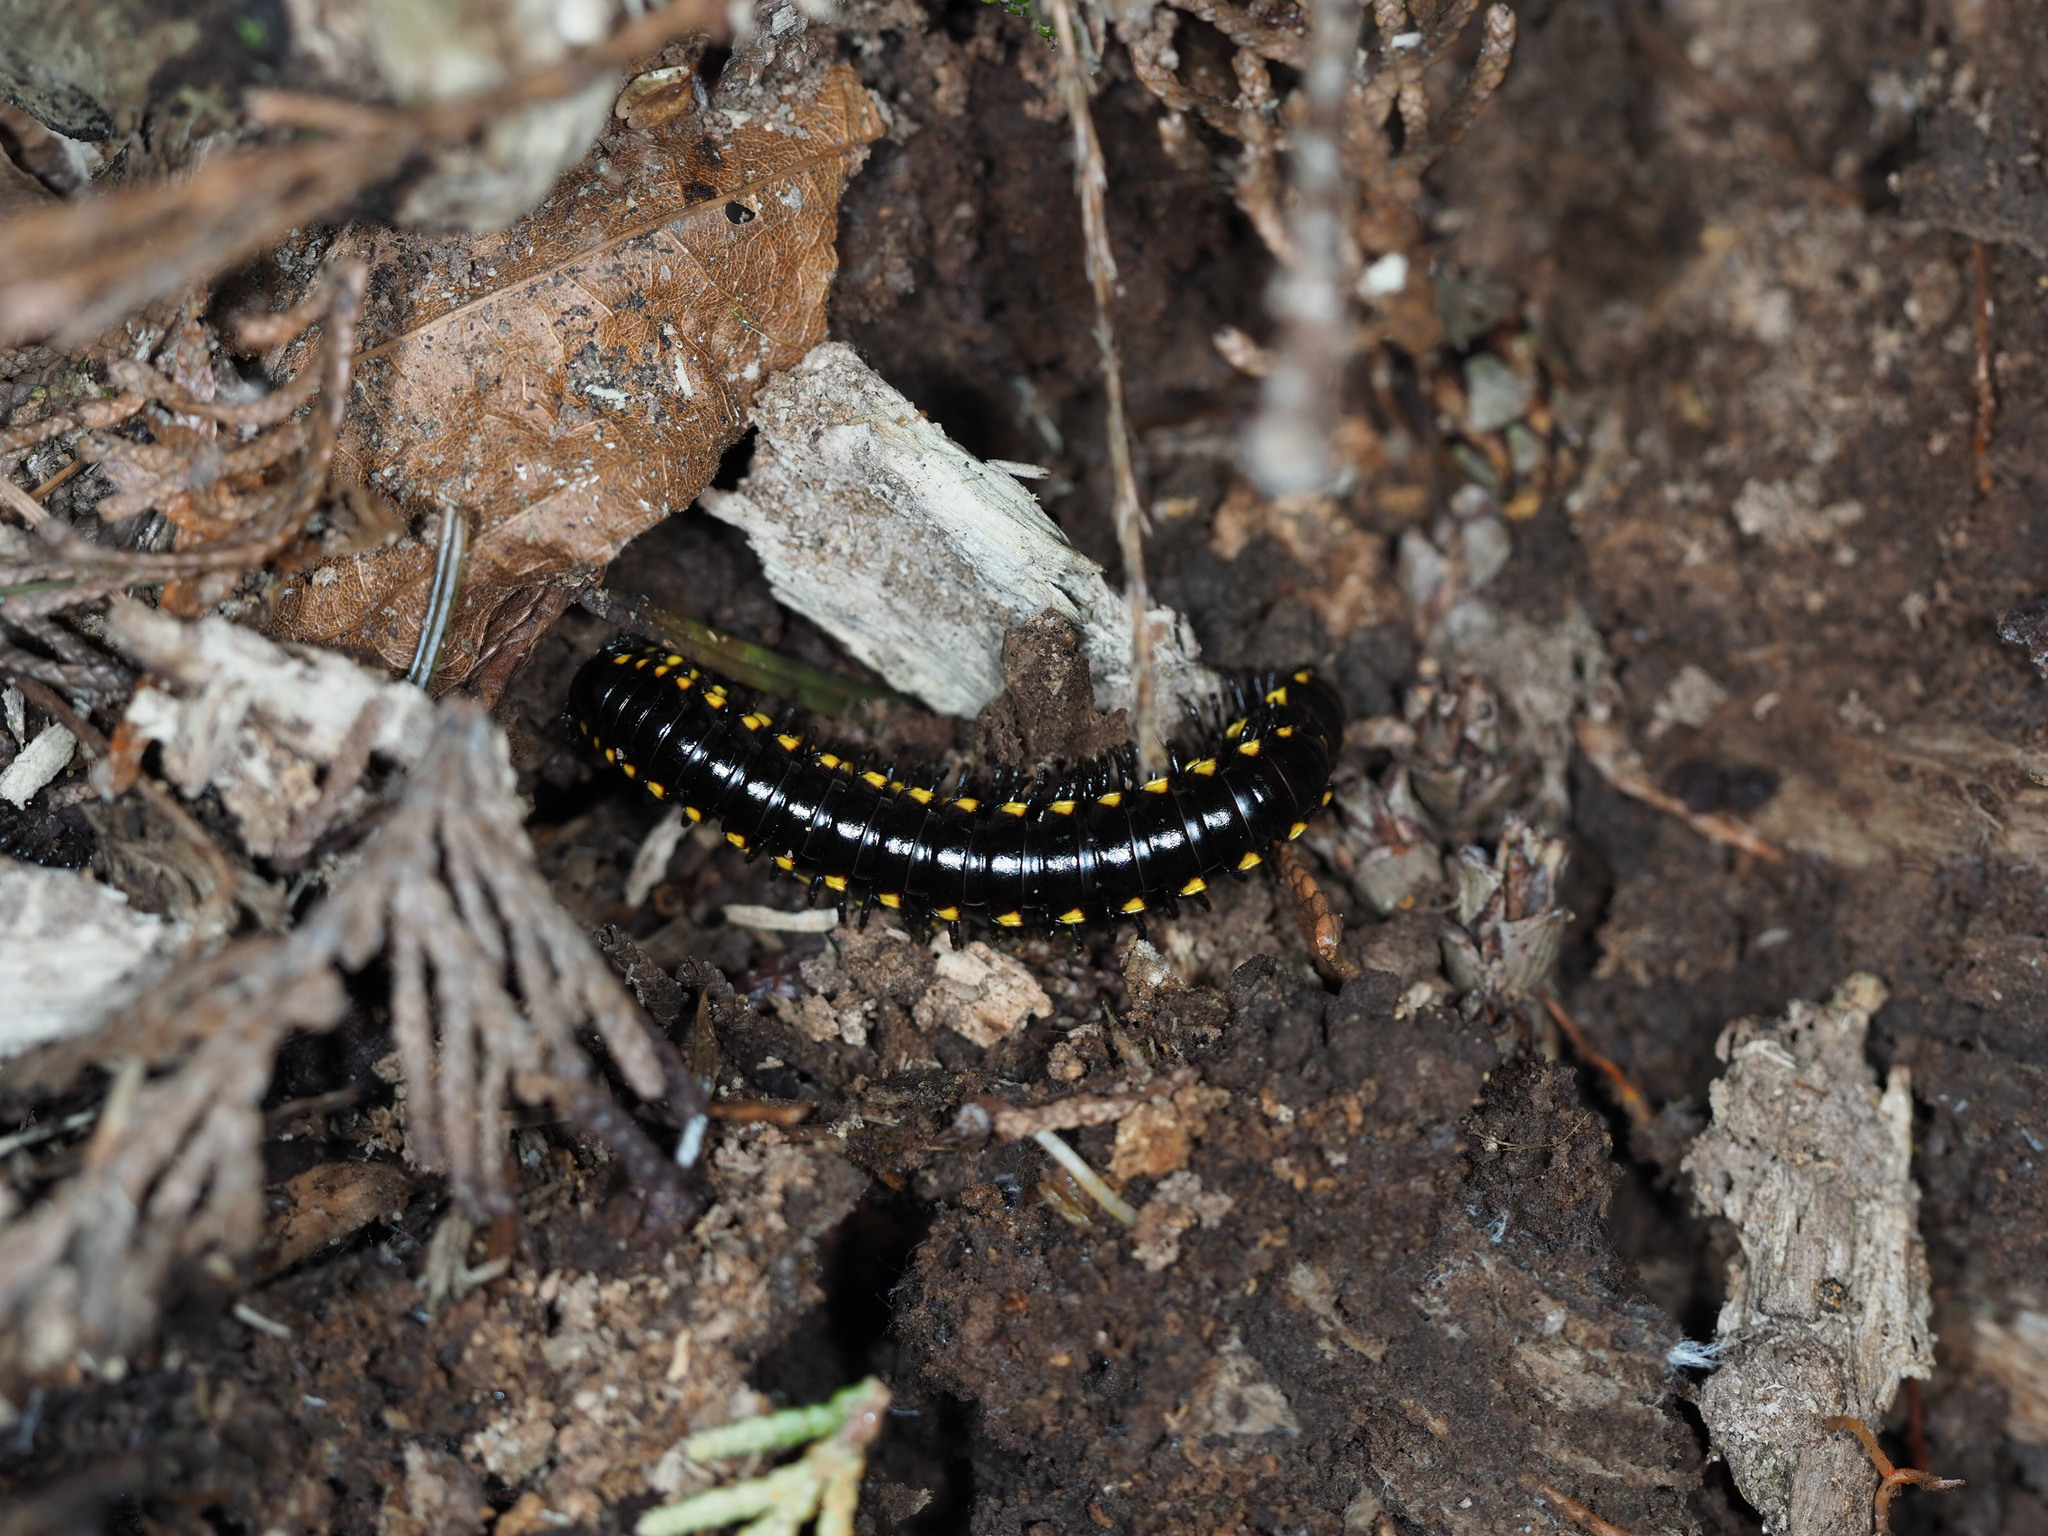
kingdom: Animalia
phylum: Arthropoda
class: Diplopoda
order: Polydesmida
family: Xystodesmidae
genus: Harpaphe
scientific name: Harpaphe haydeniana
